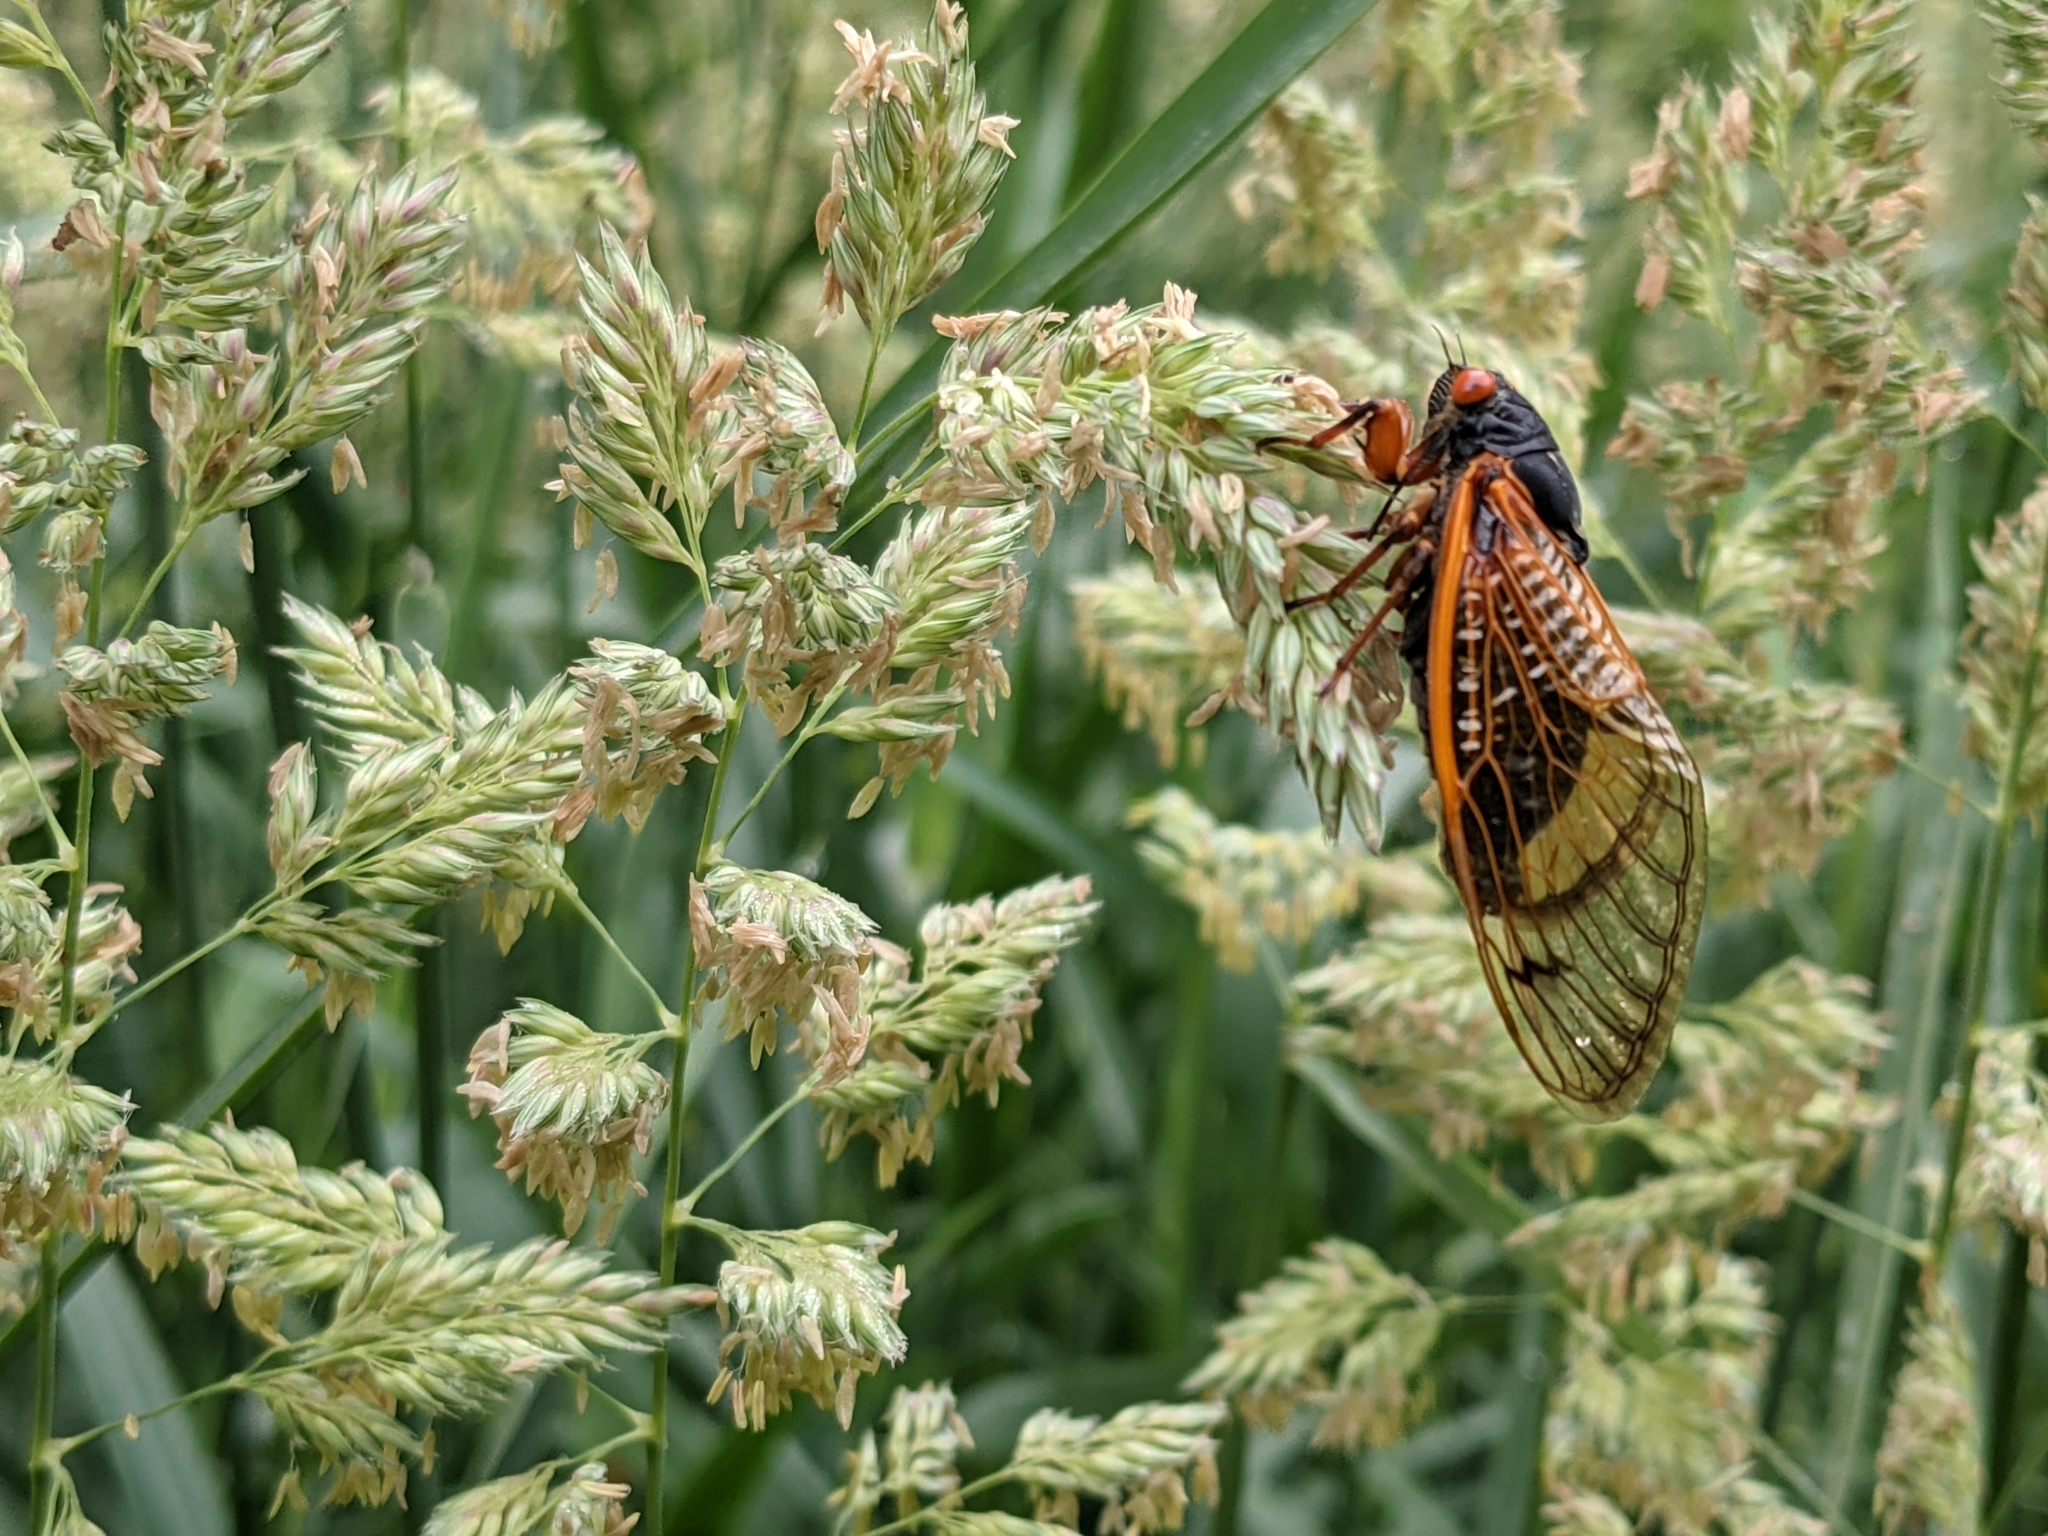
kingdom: Animalia
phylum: Arthropoda
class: Insecta
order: Hemiptera
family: Cicadidae
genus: Magicicada
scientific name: Magicicada
